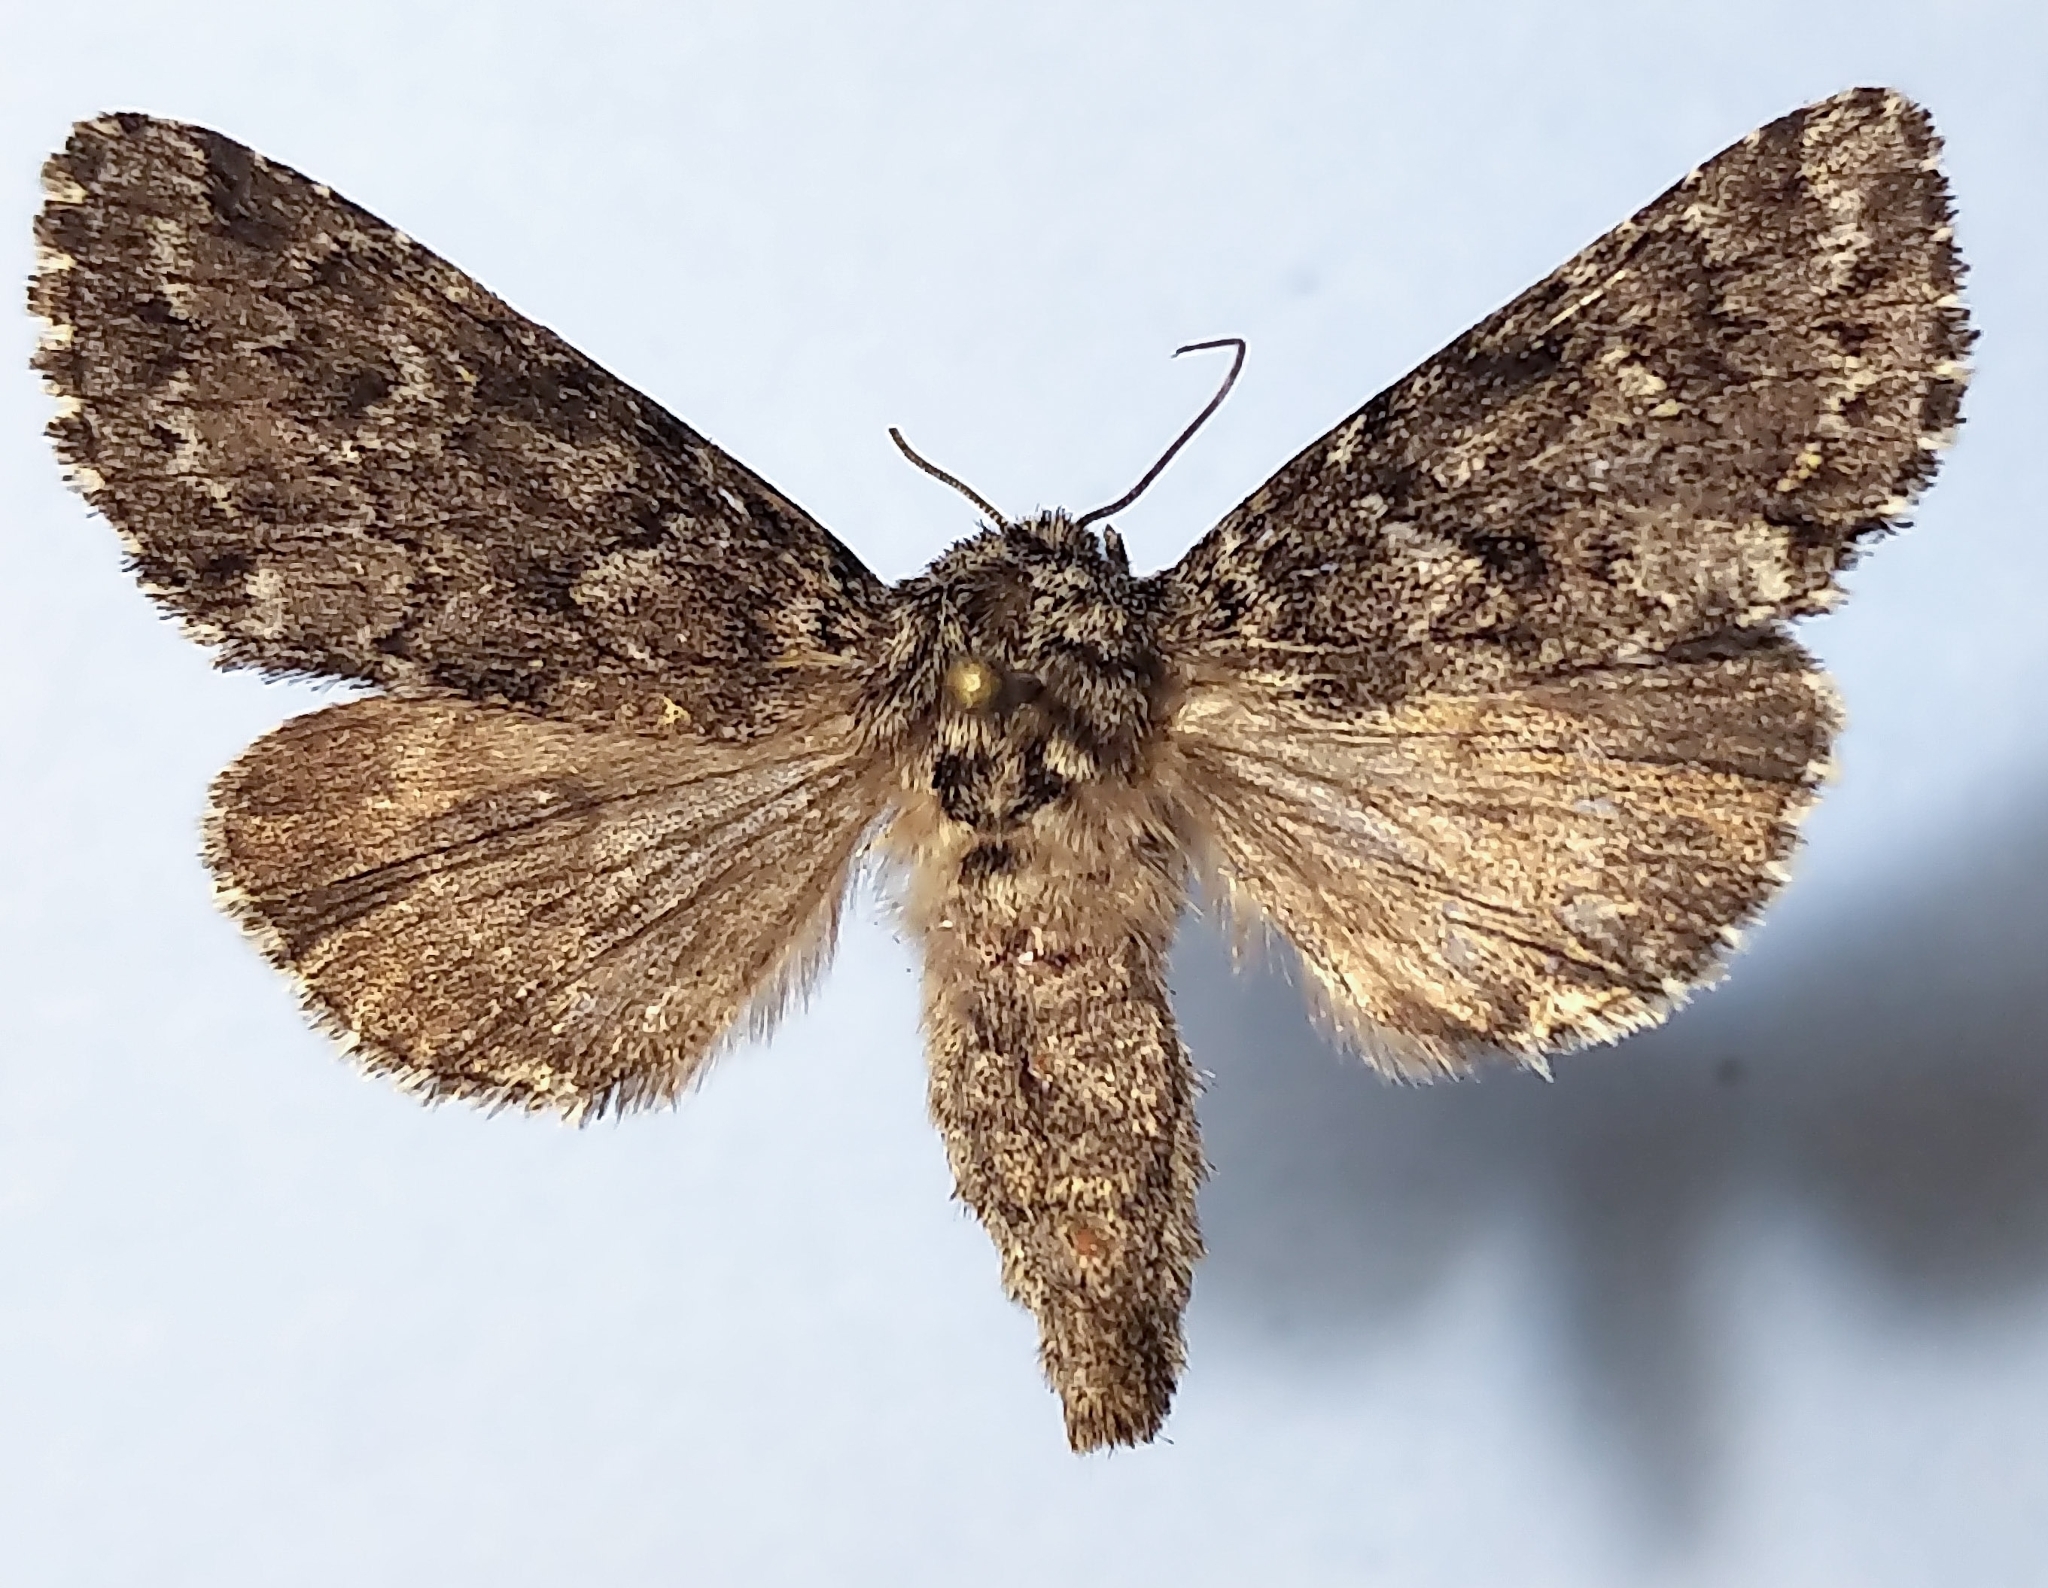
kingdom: Animalia
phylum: Arthropoda
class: Insecta
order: Lepidoptera
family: Noctuidae
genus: Lasionycta
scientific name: Lasionycta taigata
